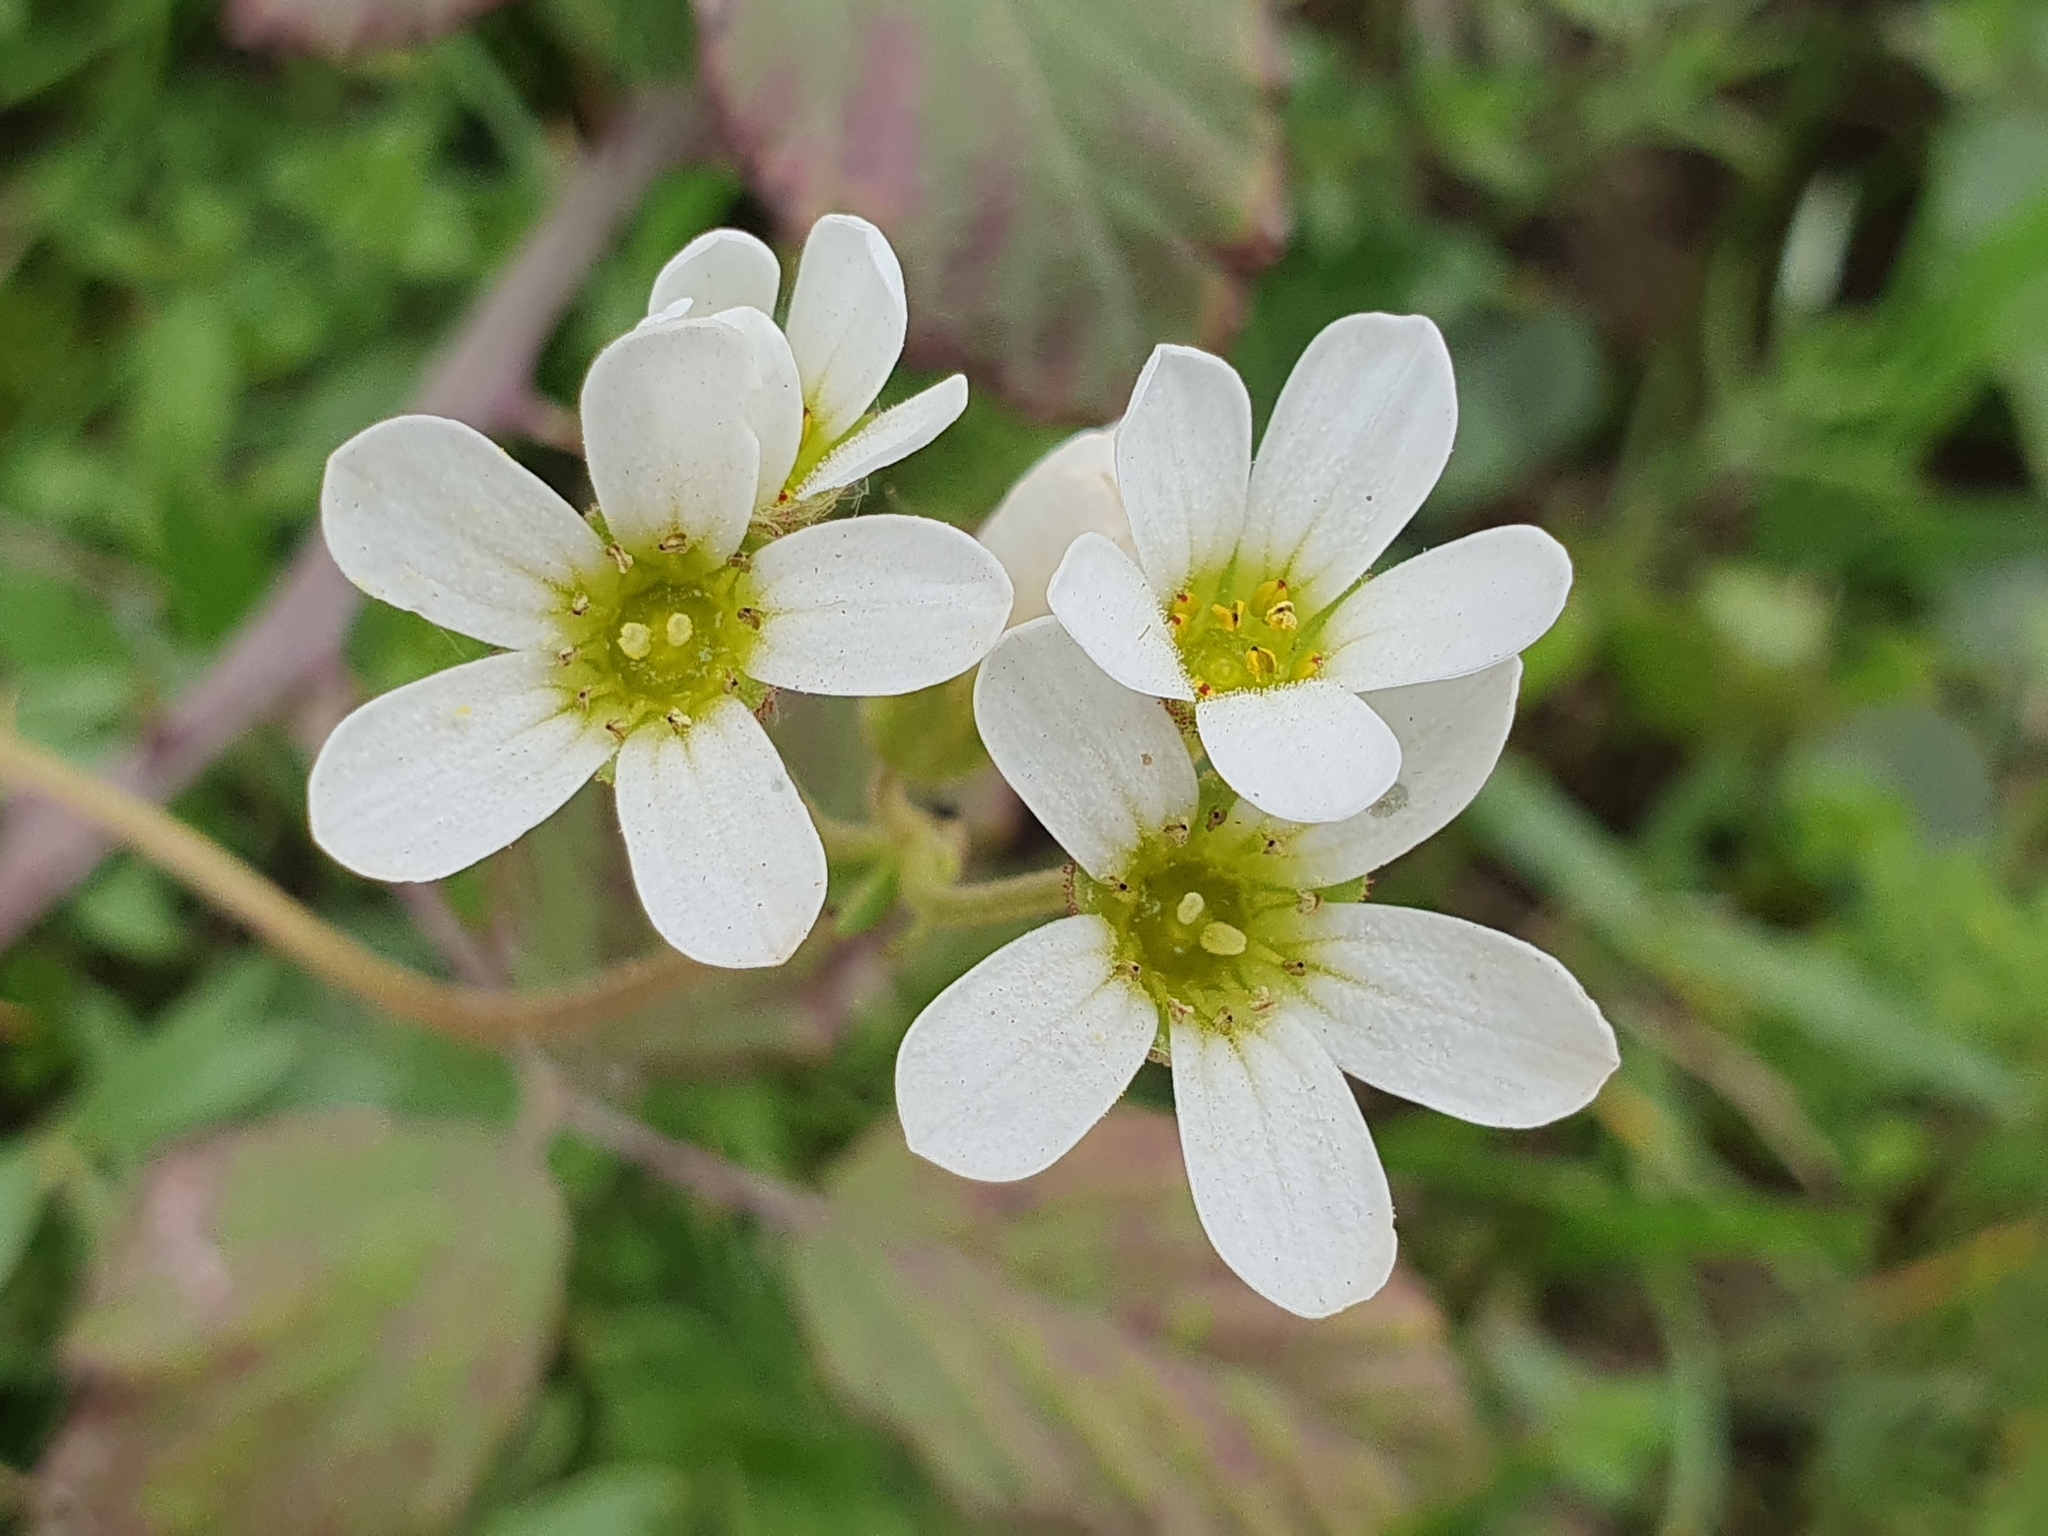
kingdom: Plantae
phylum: Tracheophyta
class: Magnoliopsida
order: Saxifragales
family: Saxifragaceae
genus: Saxifraga
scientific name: Saxifraga carpetana
